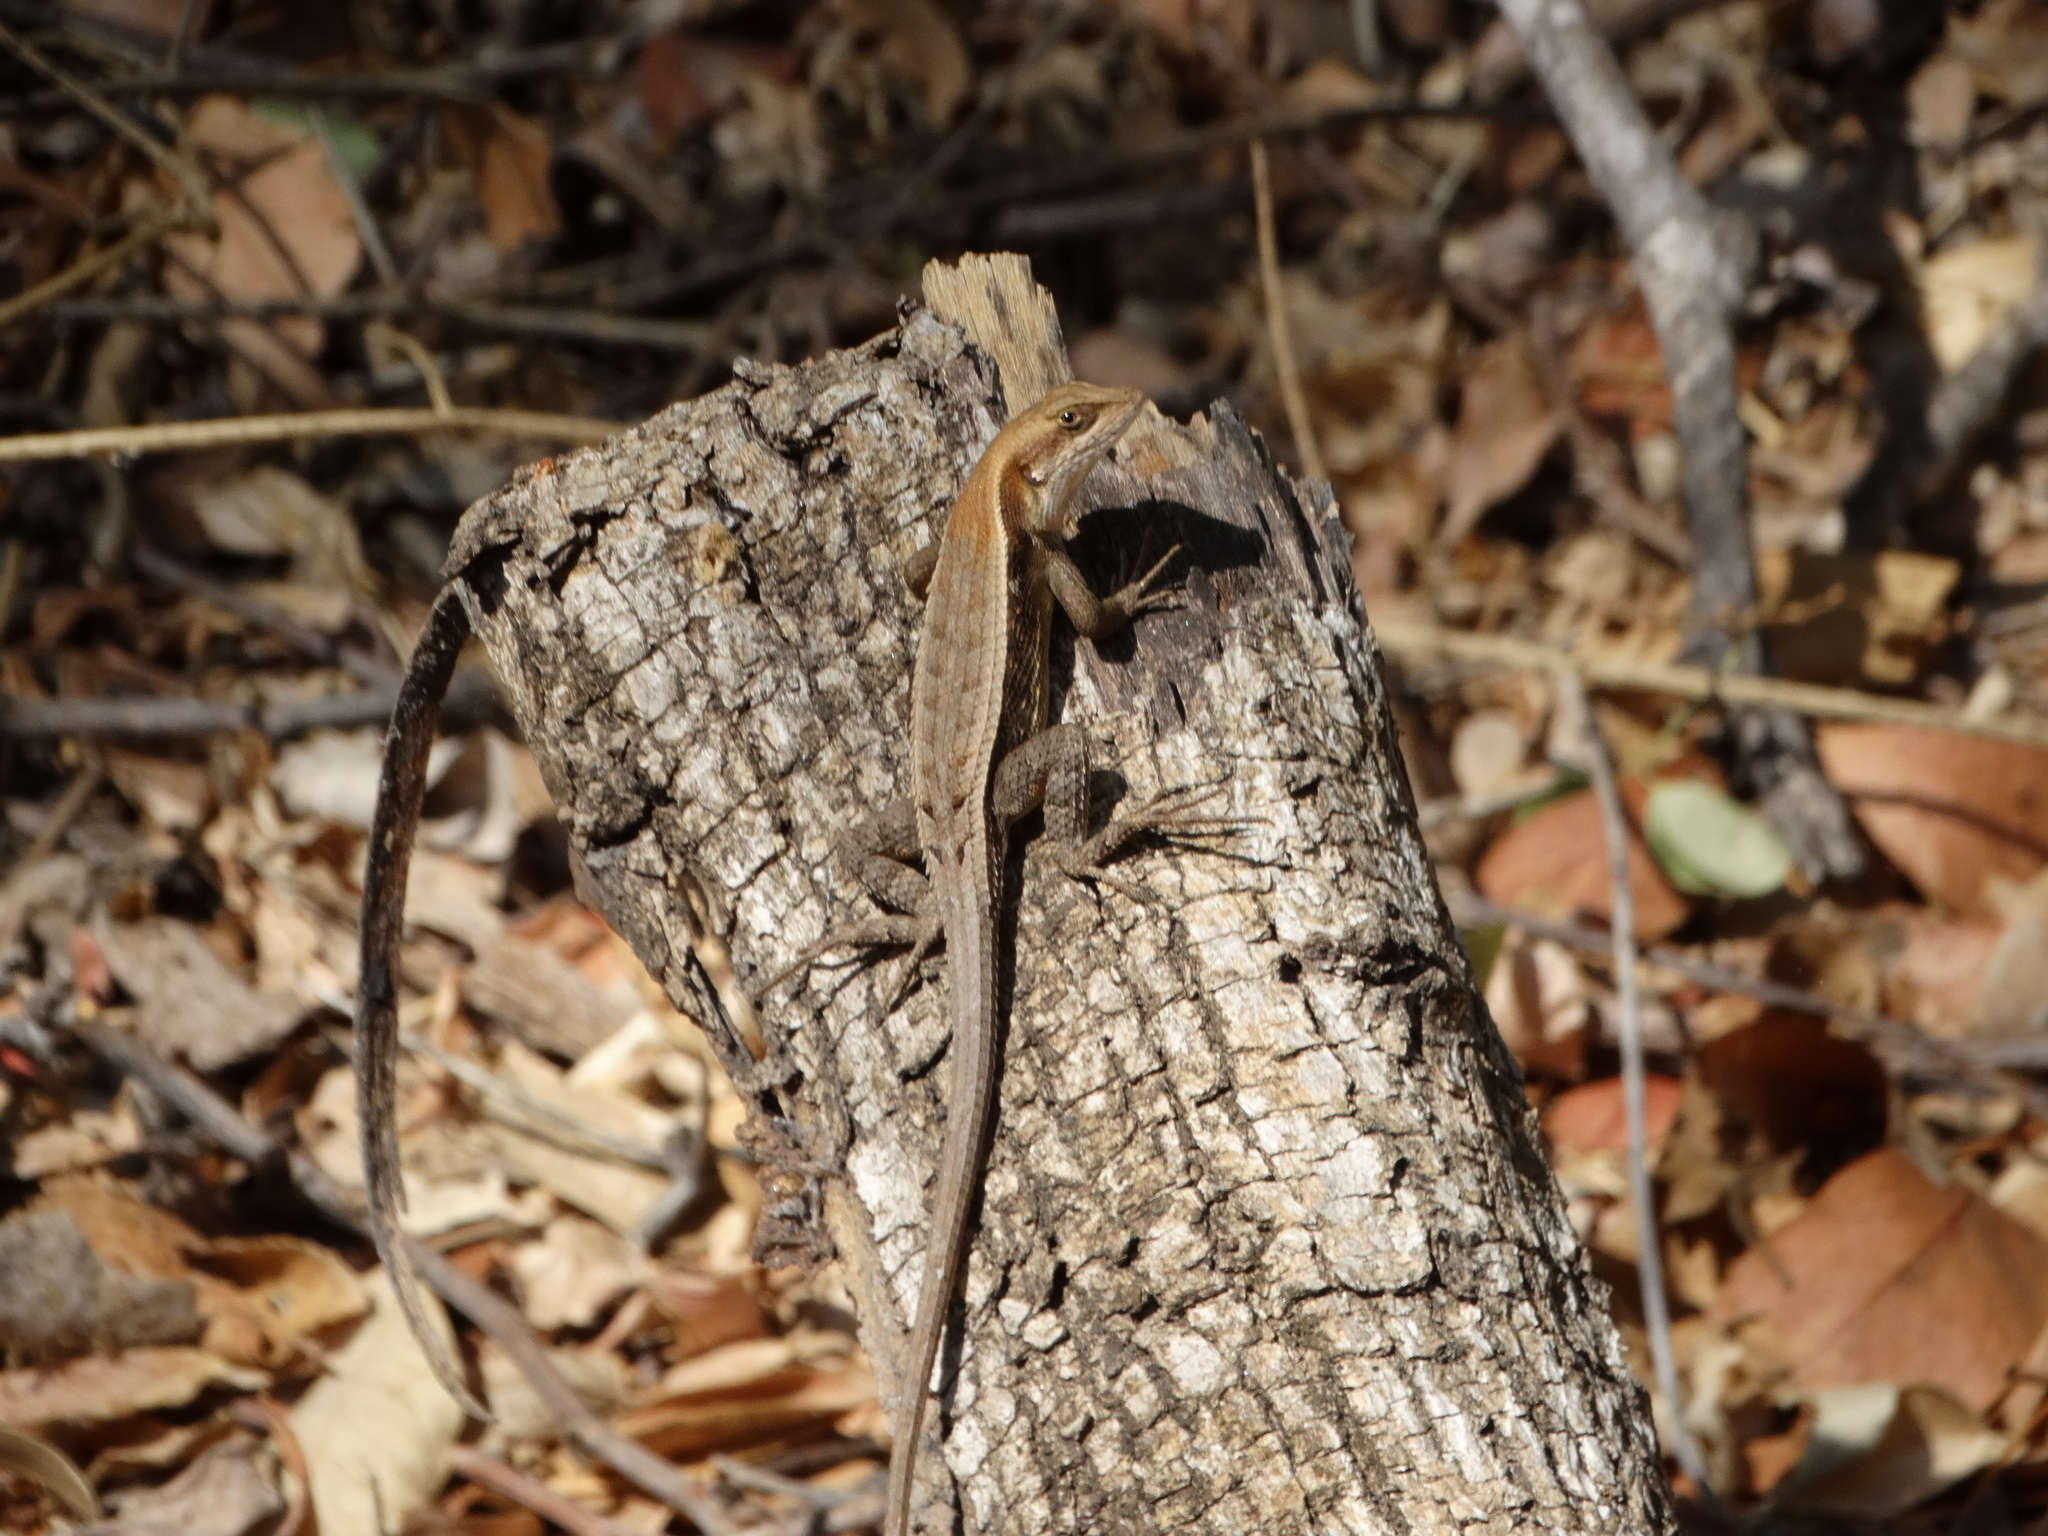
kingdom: Animalia
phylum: Chordata
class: Squamata
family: Phrynosomatidae
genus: Sceloporus
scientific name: Sceloporus siniferus
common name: Longtail spiny lizard
